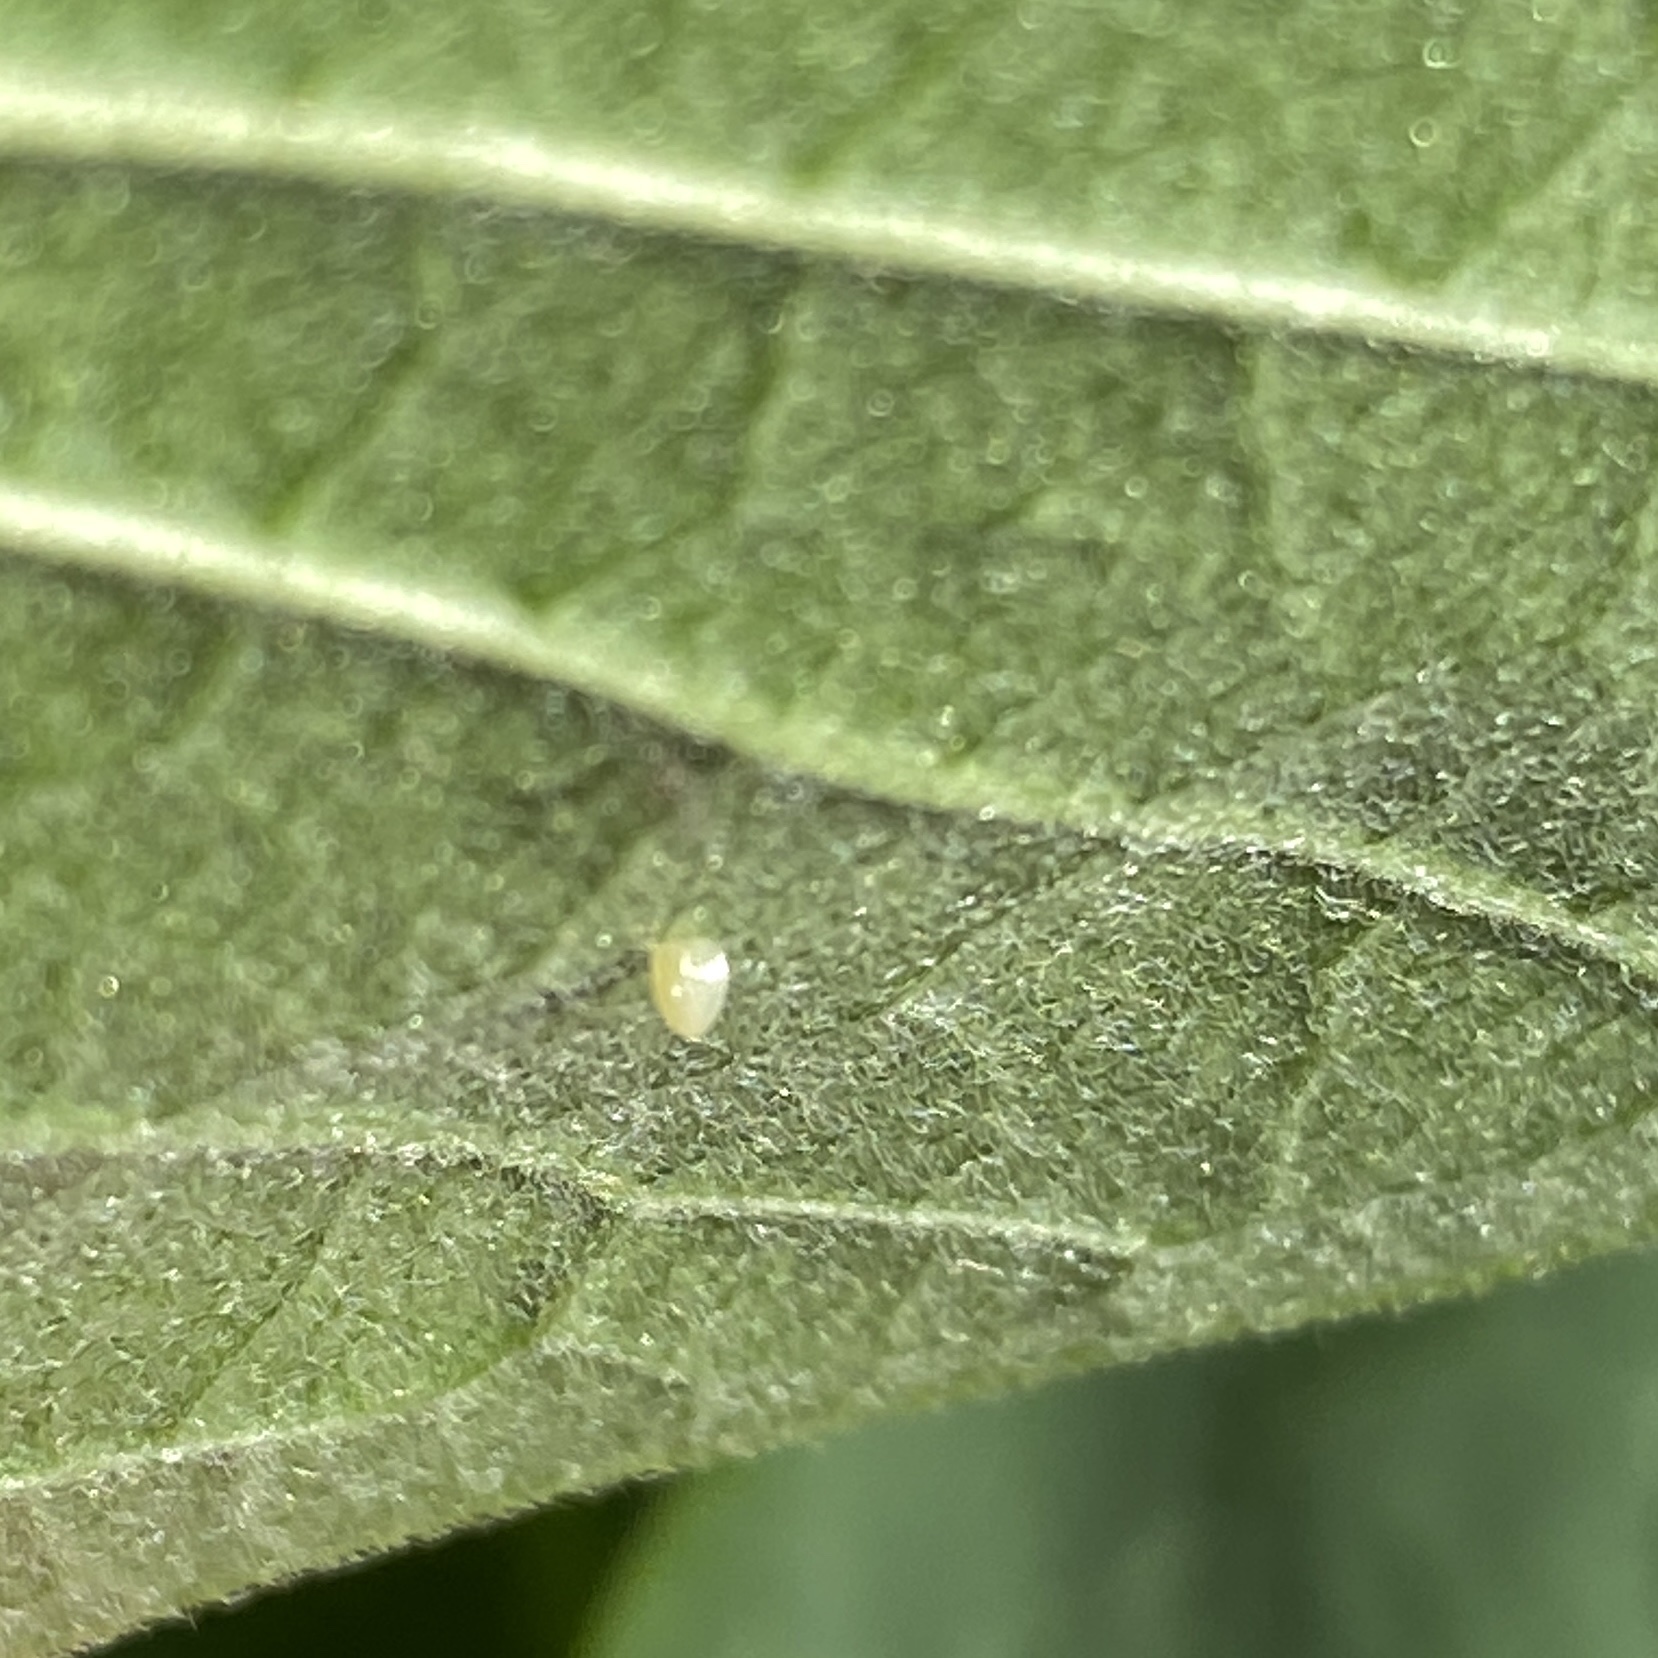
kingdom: Animalia
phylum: Arthropoda
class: Insecta
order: Lepidoptera
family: Nymphalidae
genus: Danaus
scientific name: Danaus plexippus
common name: Monarch
